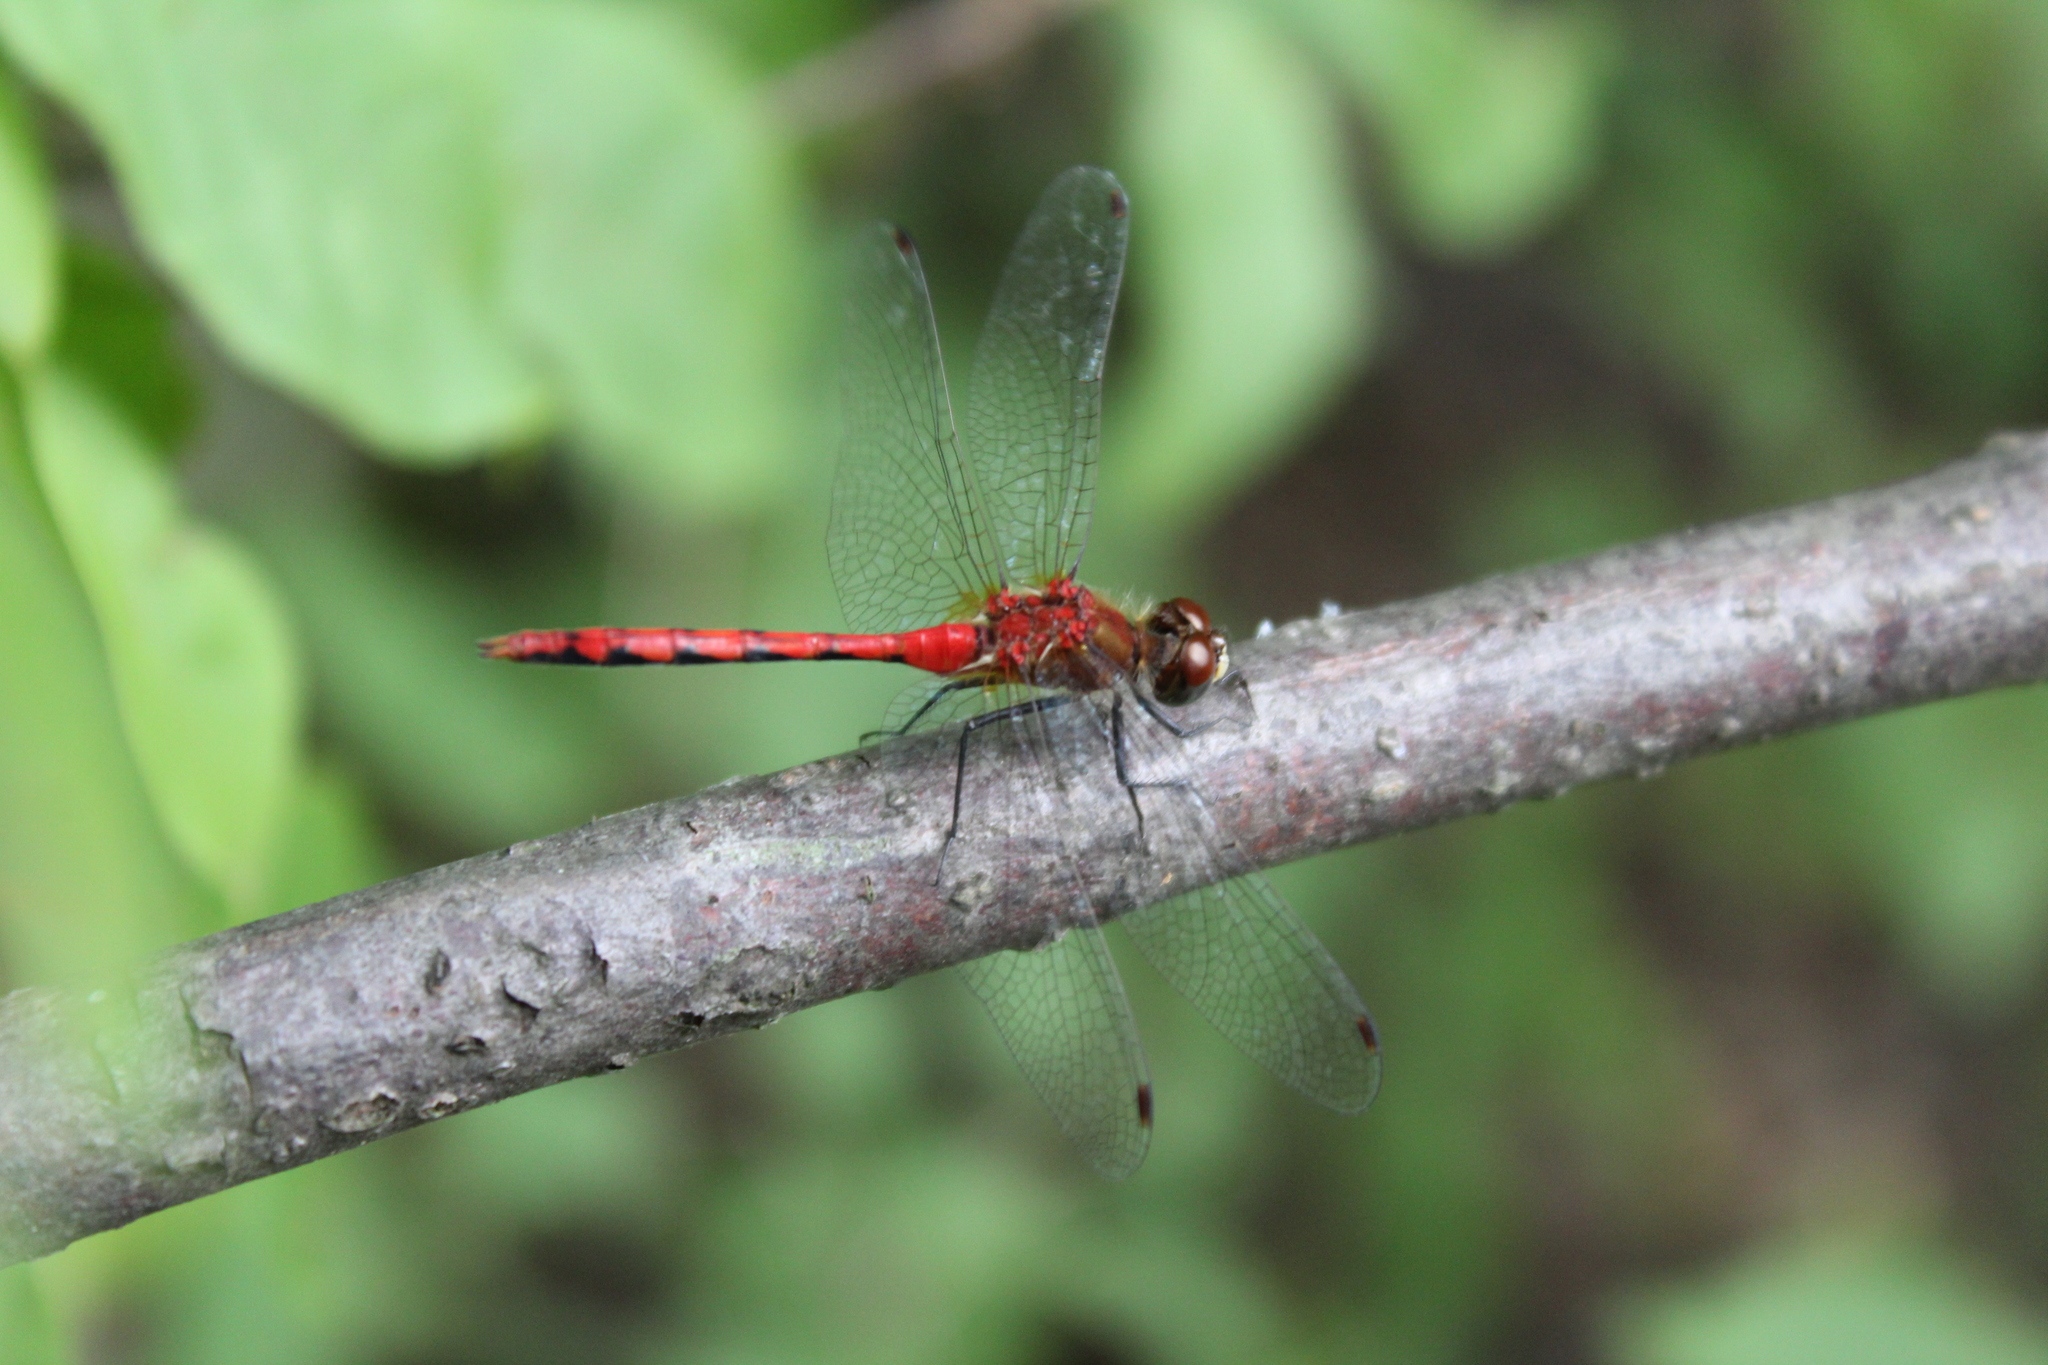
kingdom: Animalia
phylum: Arthropoda
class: Insecta
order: Odonata
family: Libellulidae
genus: Sympetrum
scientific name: Sympetrum obtrusum
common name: White-faced meadowhawk
